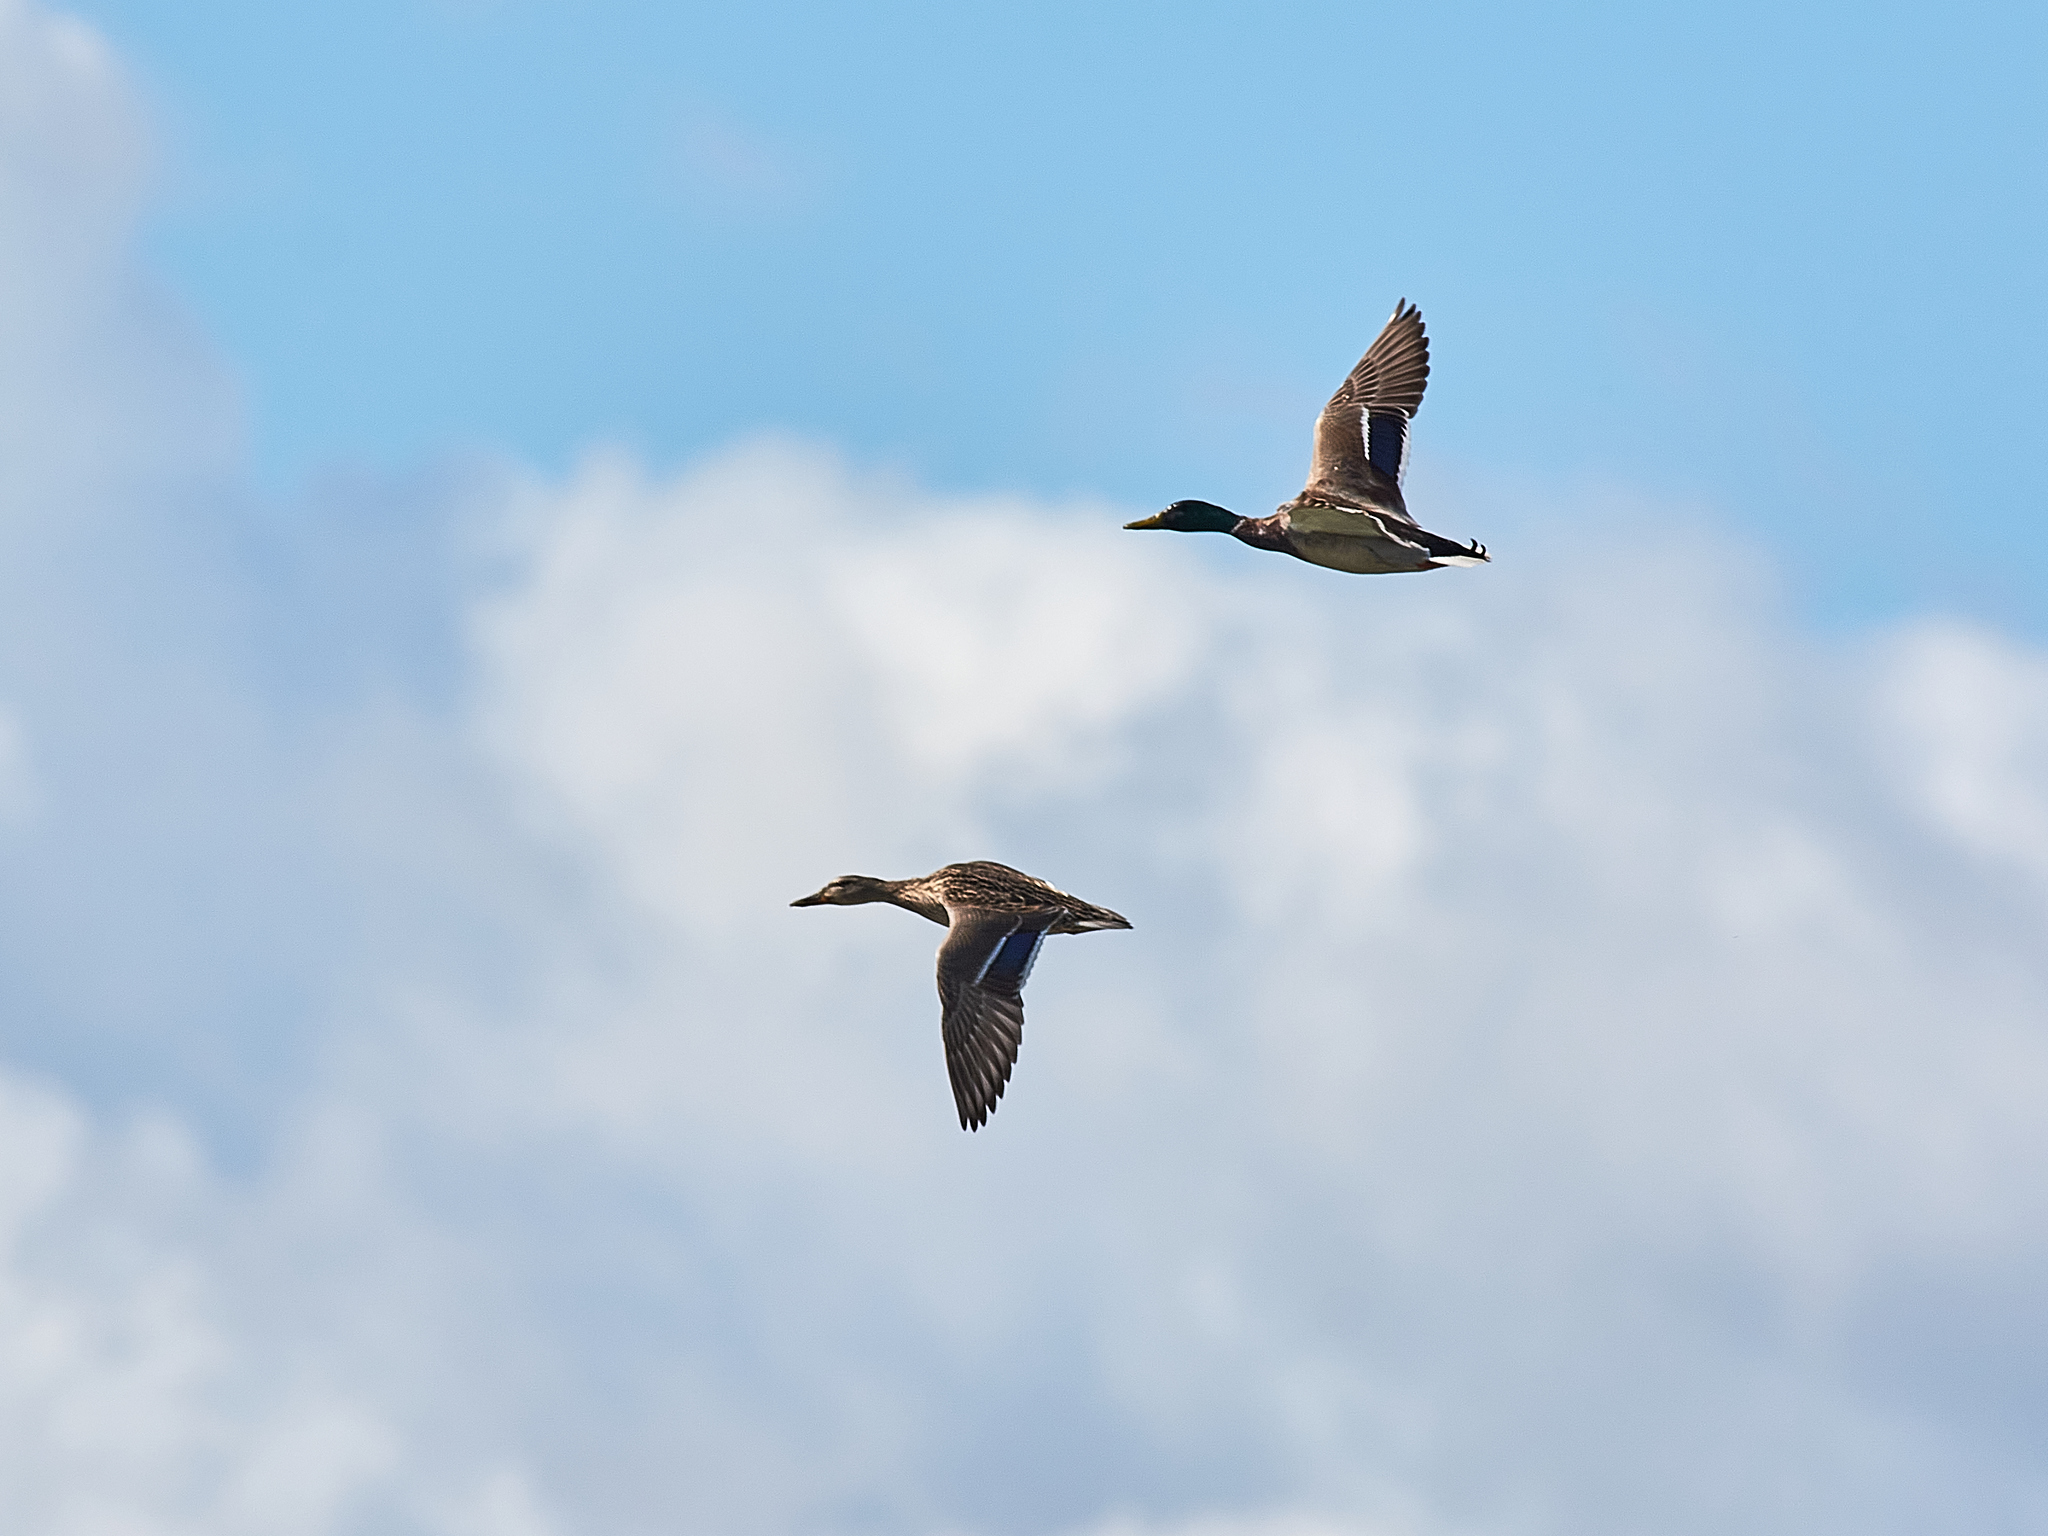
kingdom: Animalia
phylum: Chordata
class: Aves
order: Anseriformes
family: Anatidae
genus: Anas
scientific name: Anas platyrhynchos
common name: Mallard
